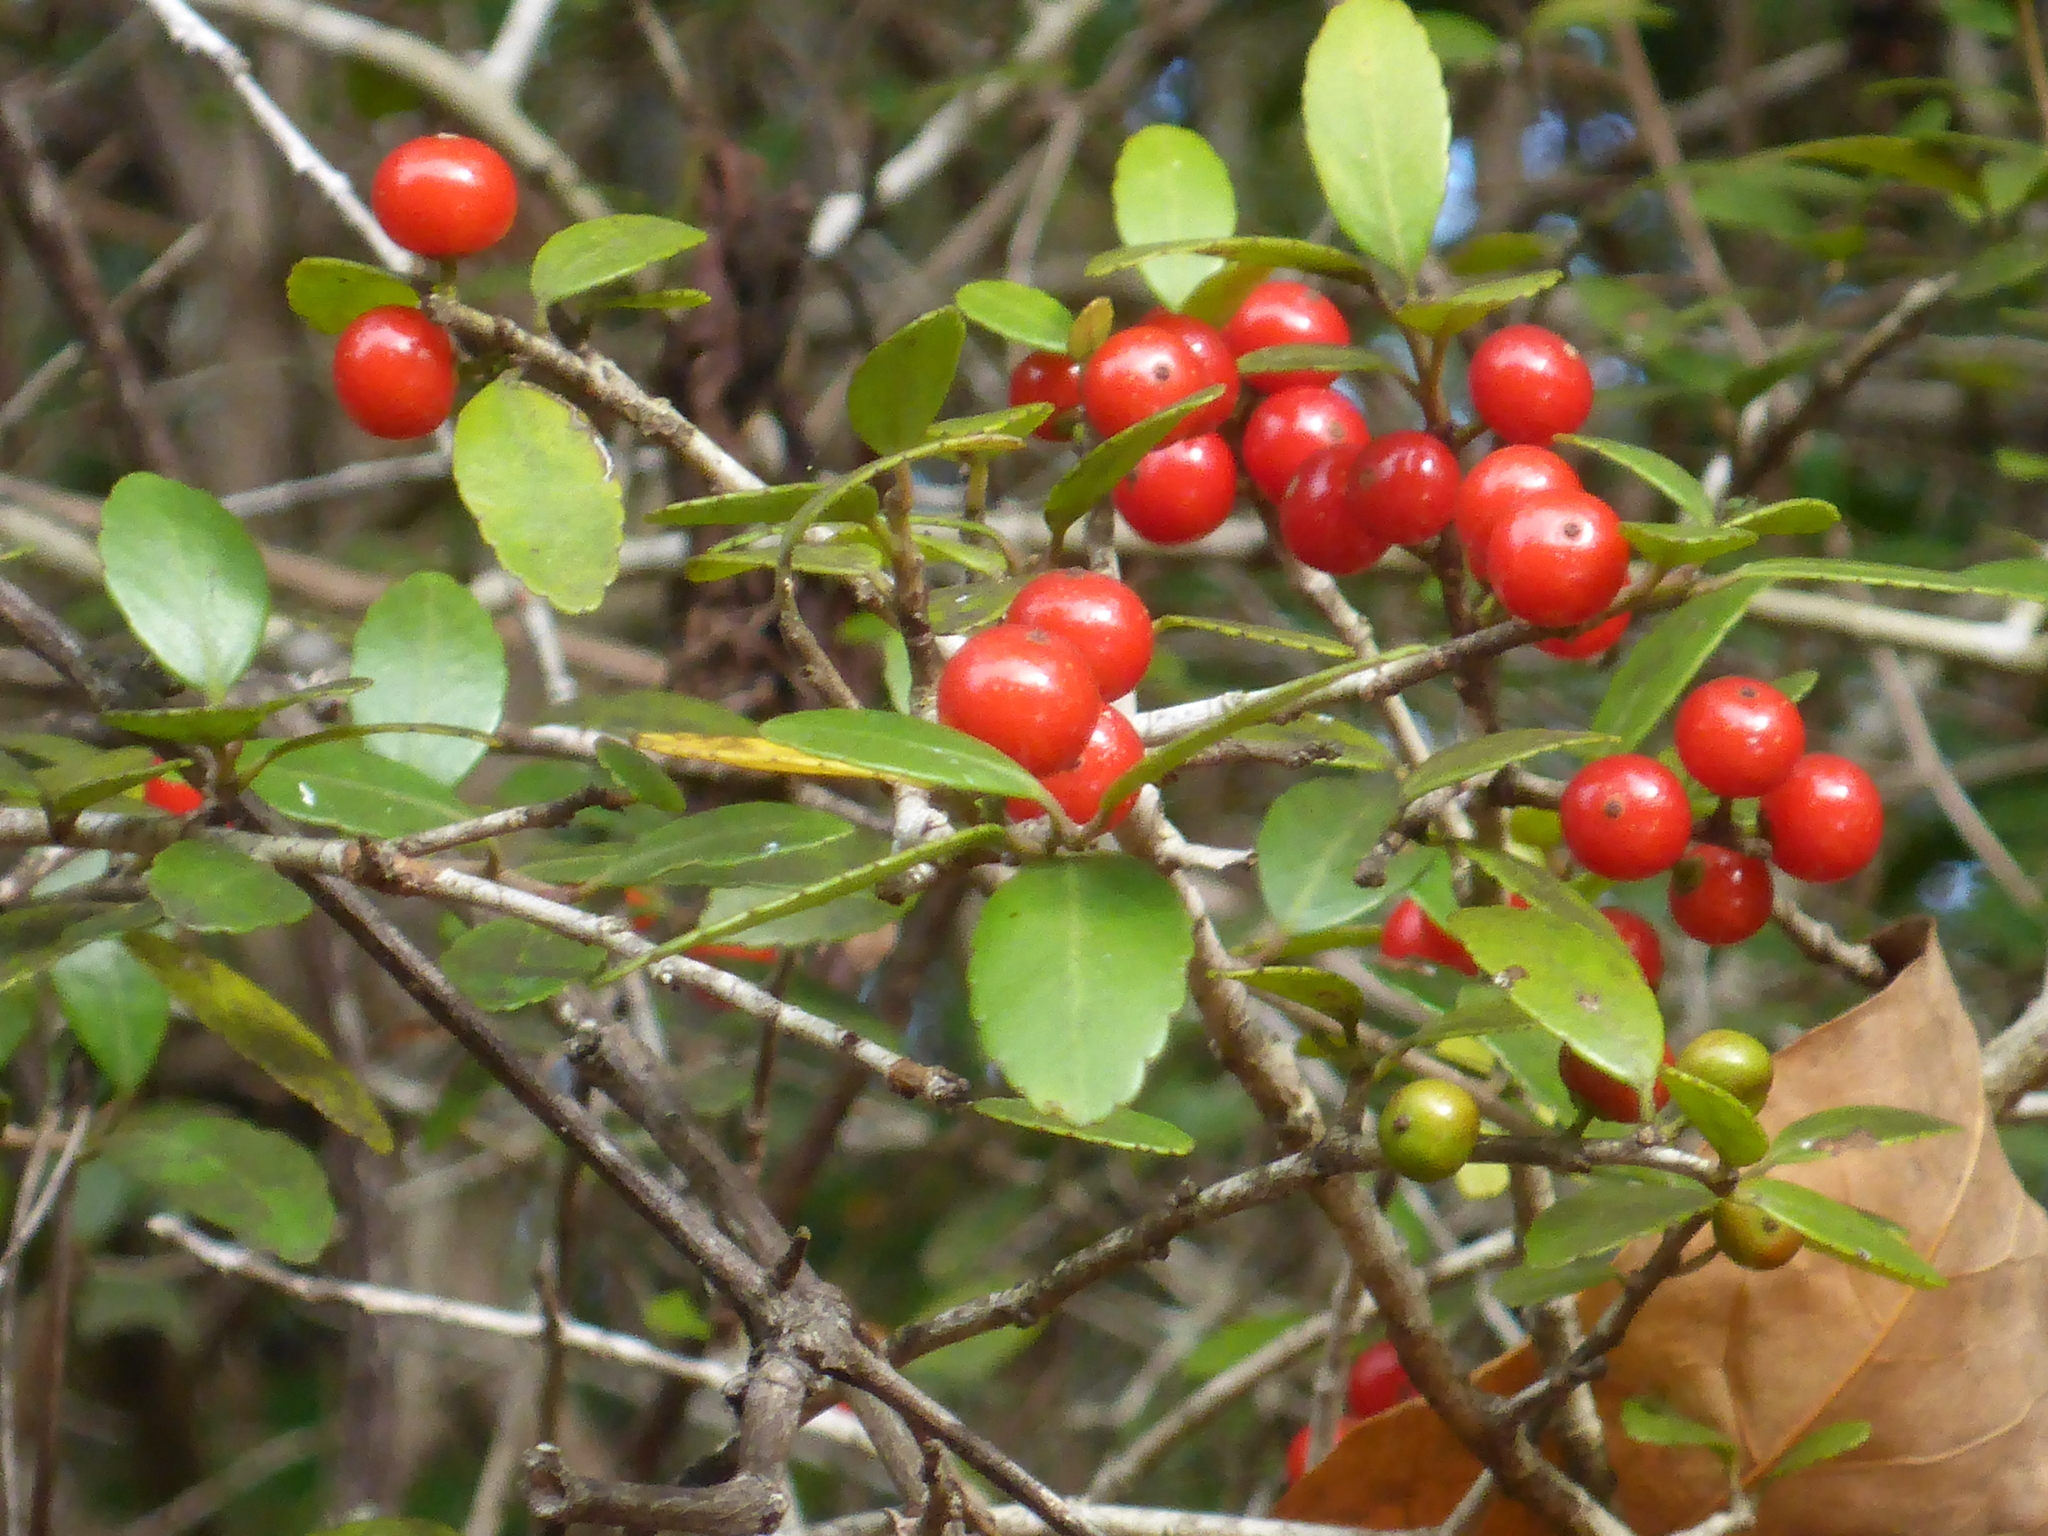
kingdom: Plantae
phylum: Tracheophyta
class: Magnoliopsida
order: Aquifoliales
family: Aquifoliaceae
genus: Ilex
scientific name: Ilex vomitoria
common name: Yaupon holly
